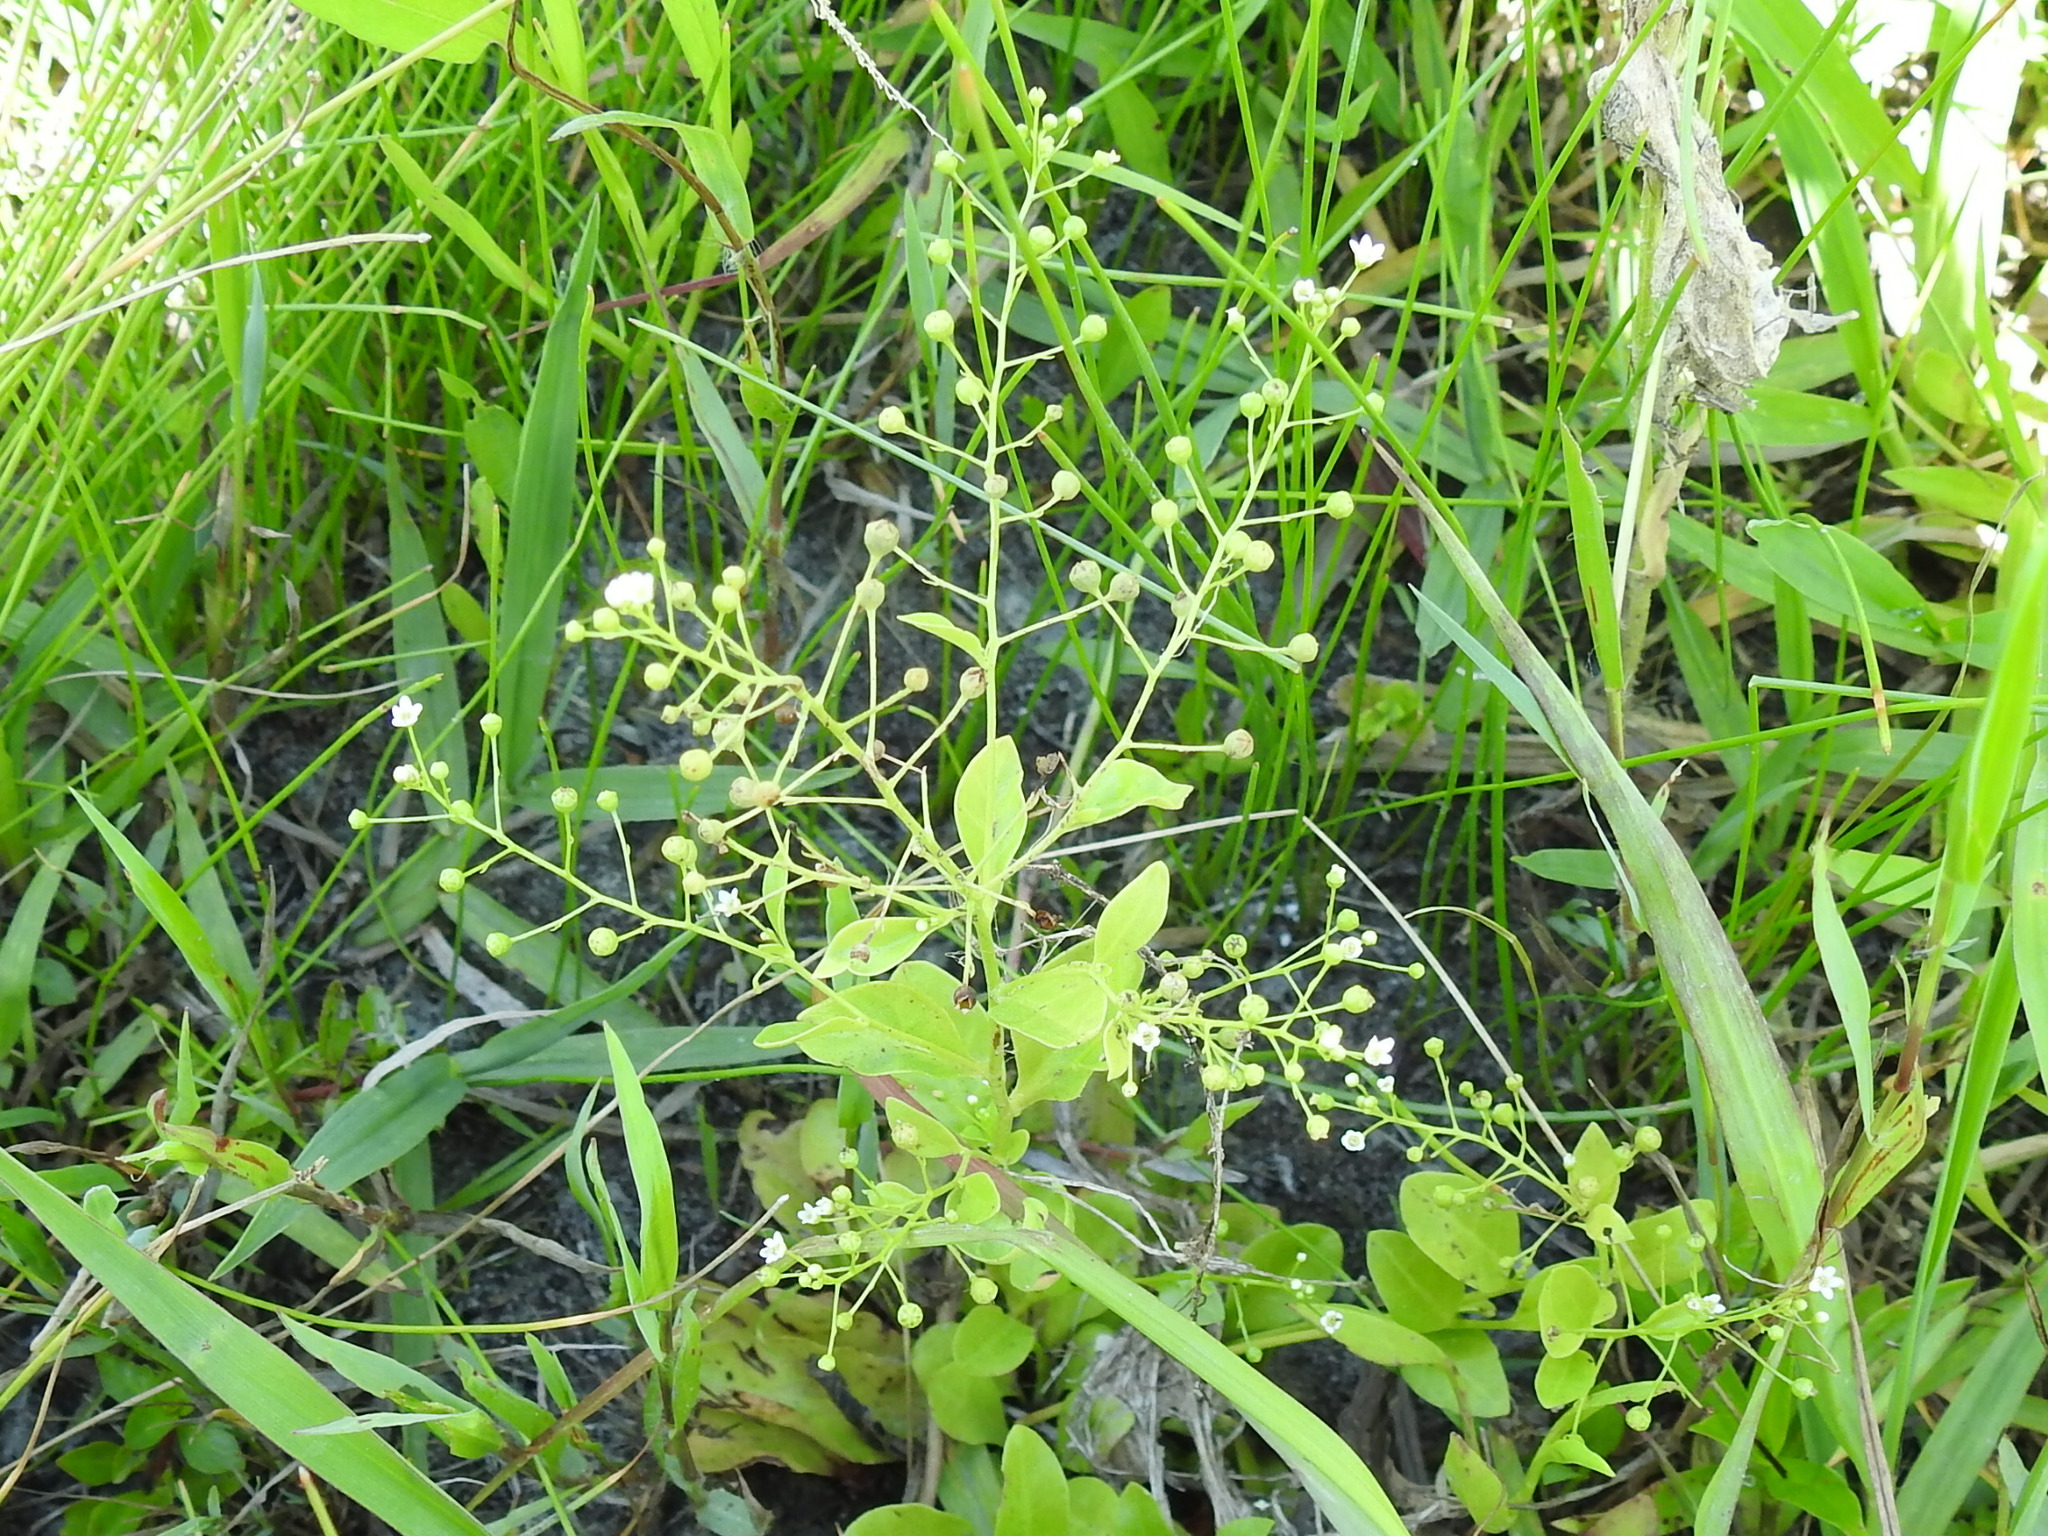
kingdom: Plantae
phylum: Tracheophyta
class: Magnoliopsida
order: Ericales
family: Primulaceae
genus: Samolus
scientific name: Samolus parviflorus
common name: False water pimpernel
